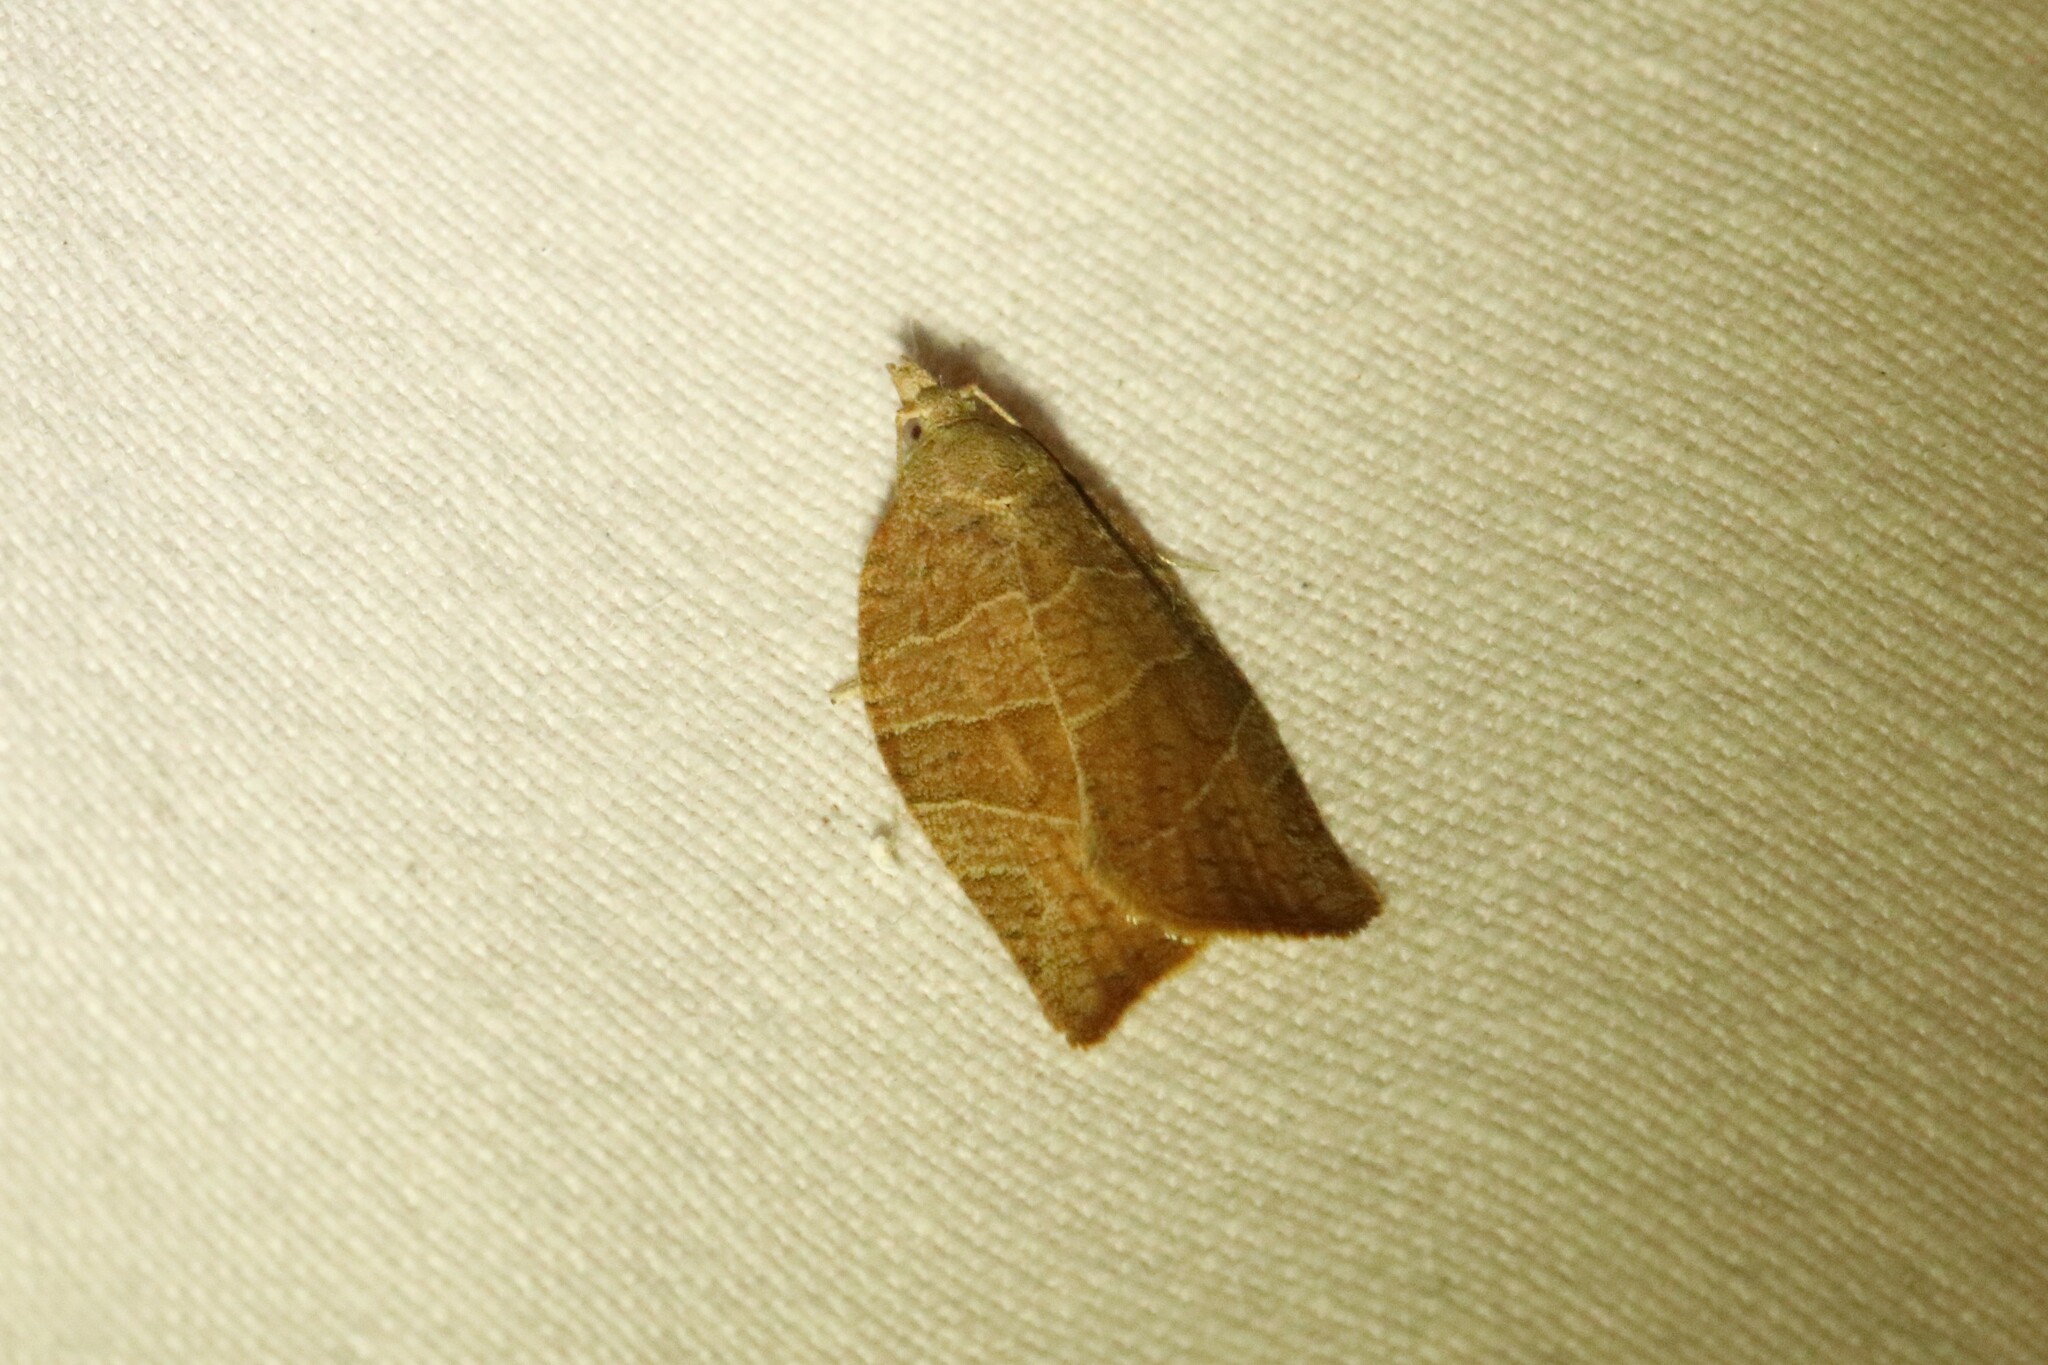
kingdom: Animalia
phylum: Arthropoda
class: Insecta
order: Lepidoptera
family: Tortricidae
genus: Pandemis
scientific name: Pandemis limitata
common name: Three-lined leafroller moth
